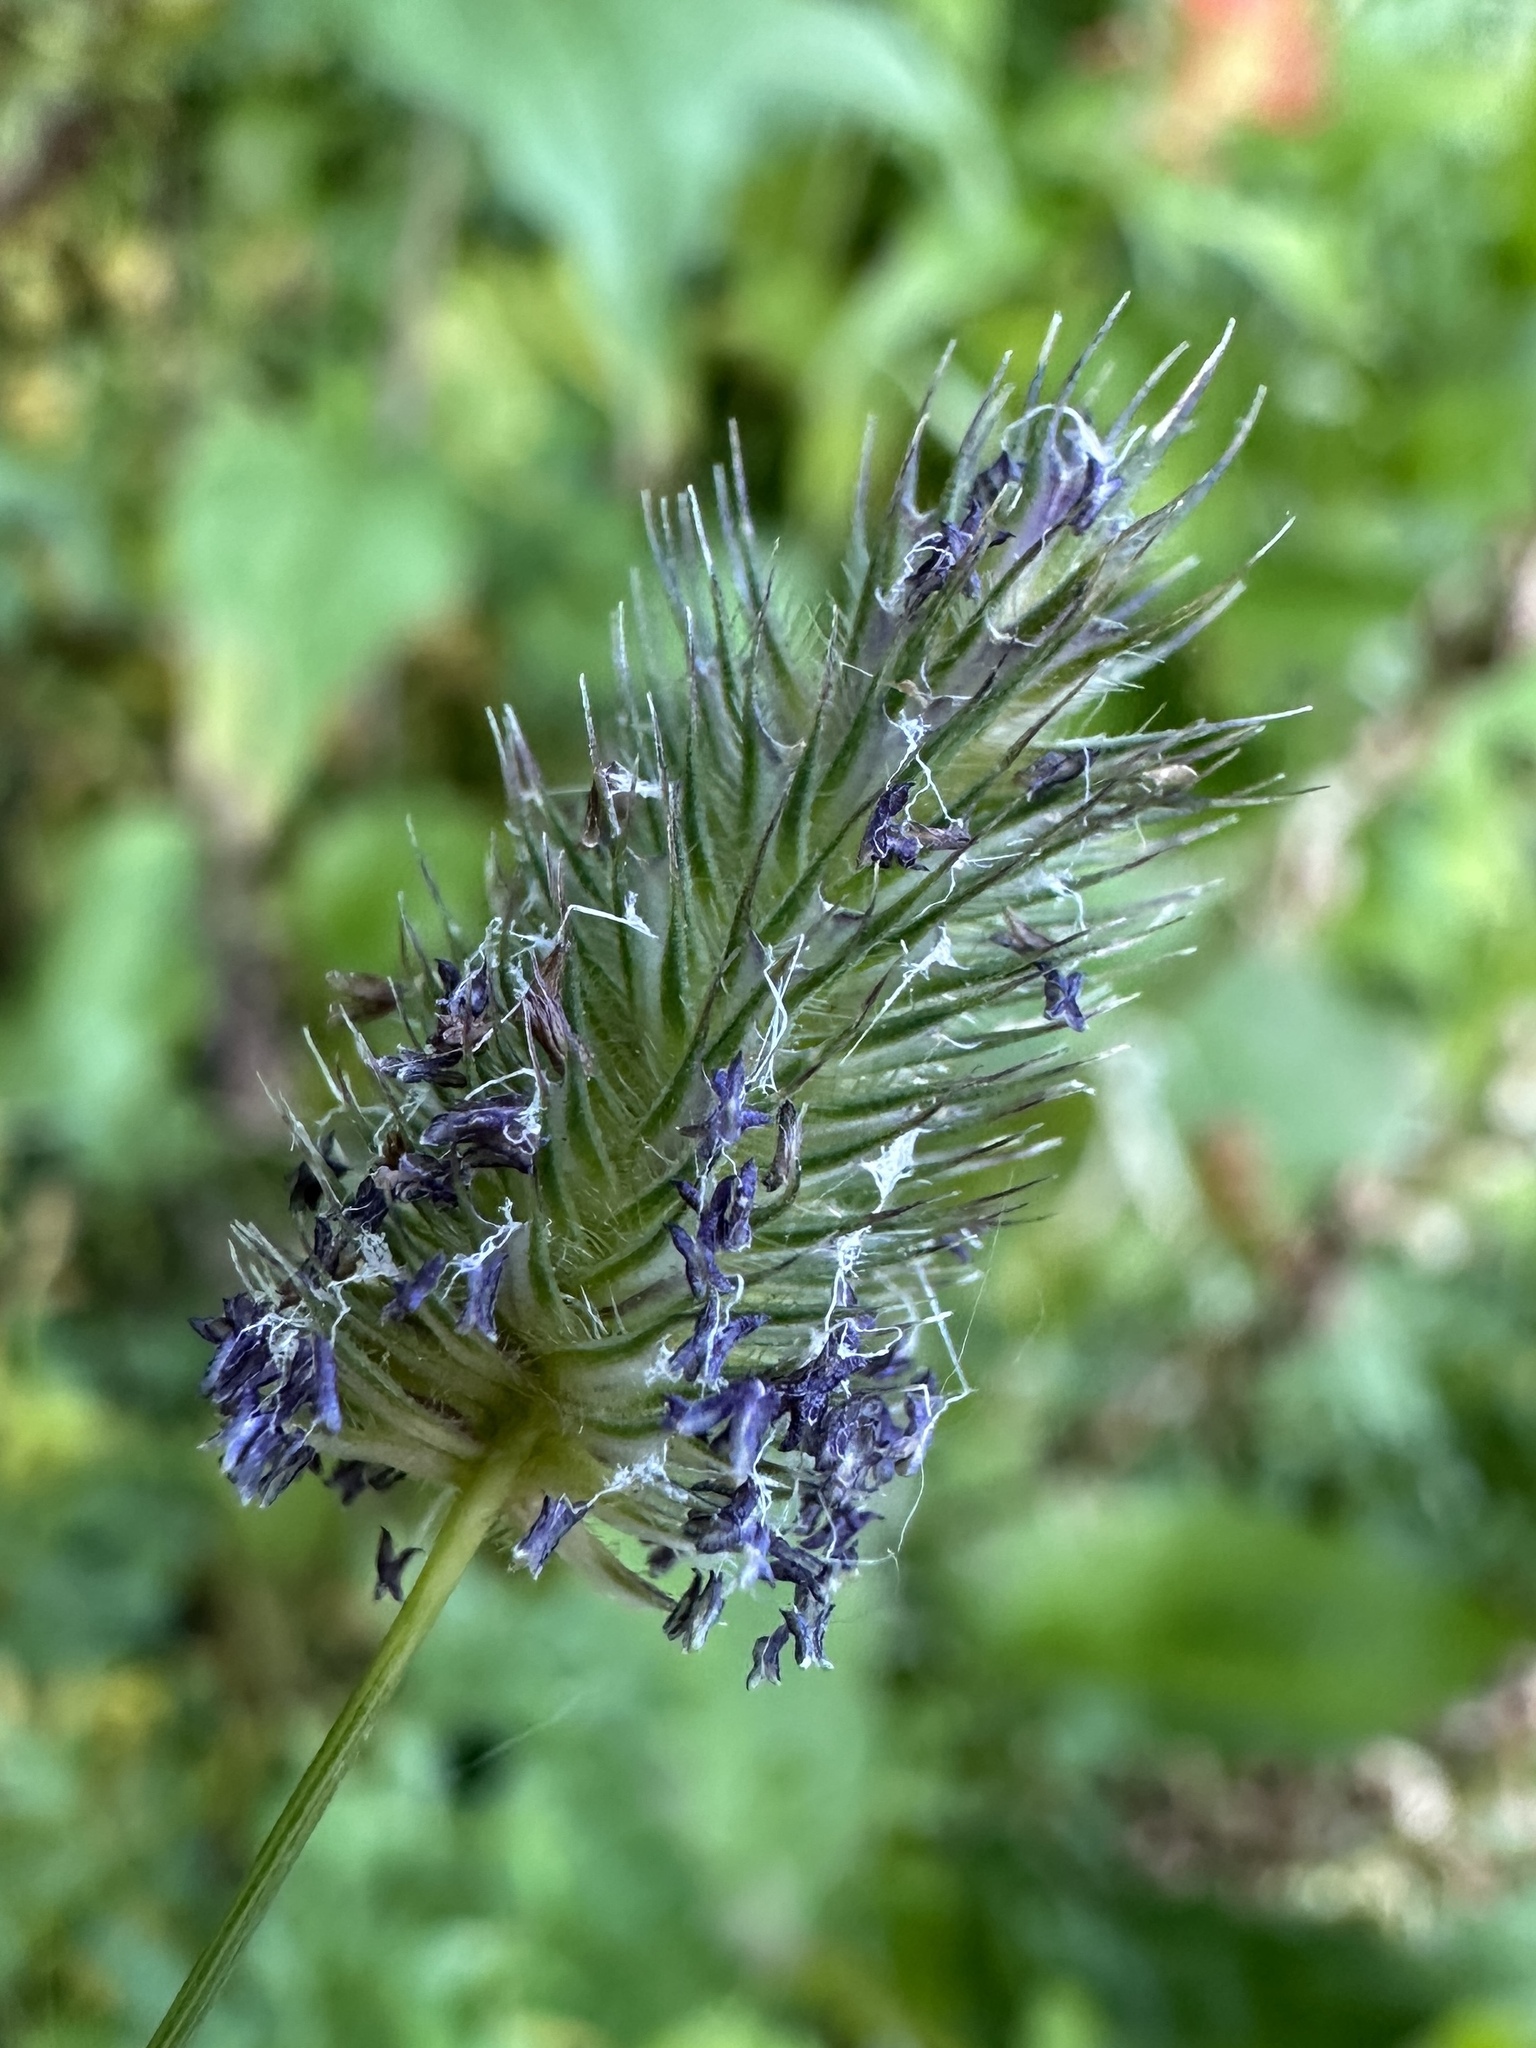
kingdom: Plantae
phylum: Tracheophyta
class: Liliopsida
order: Poales
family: Poaceae
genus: Phleum
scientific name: Phleum alpinum
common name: Alpine cat's-tail
